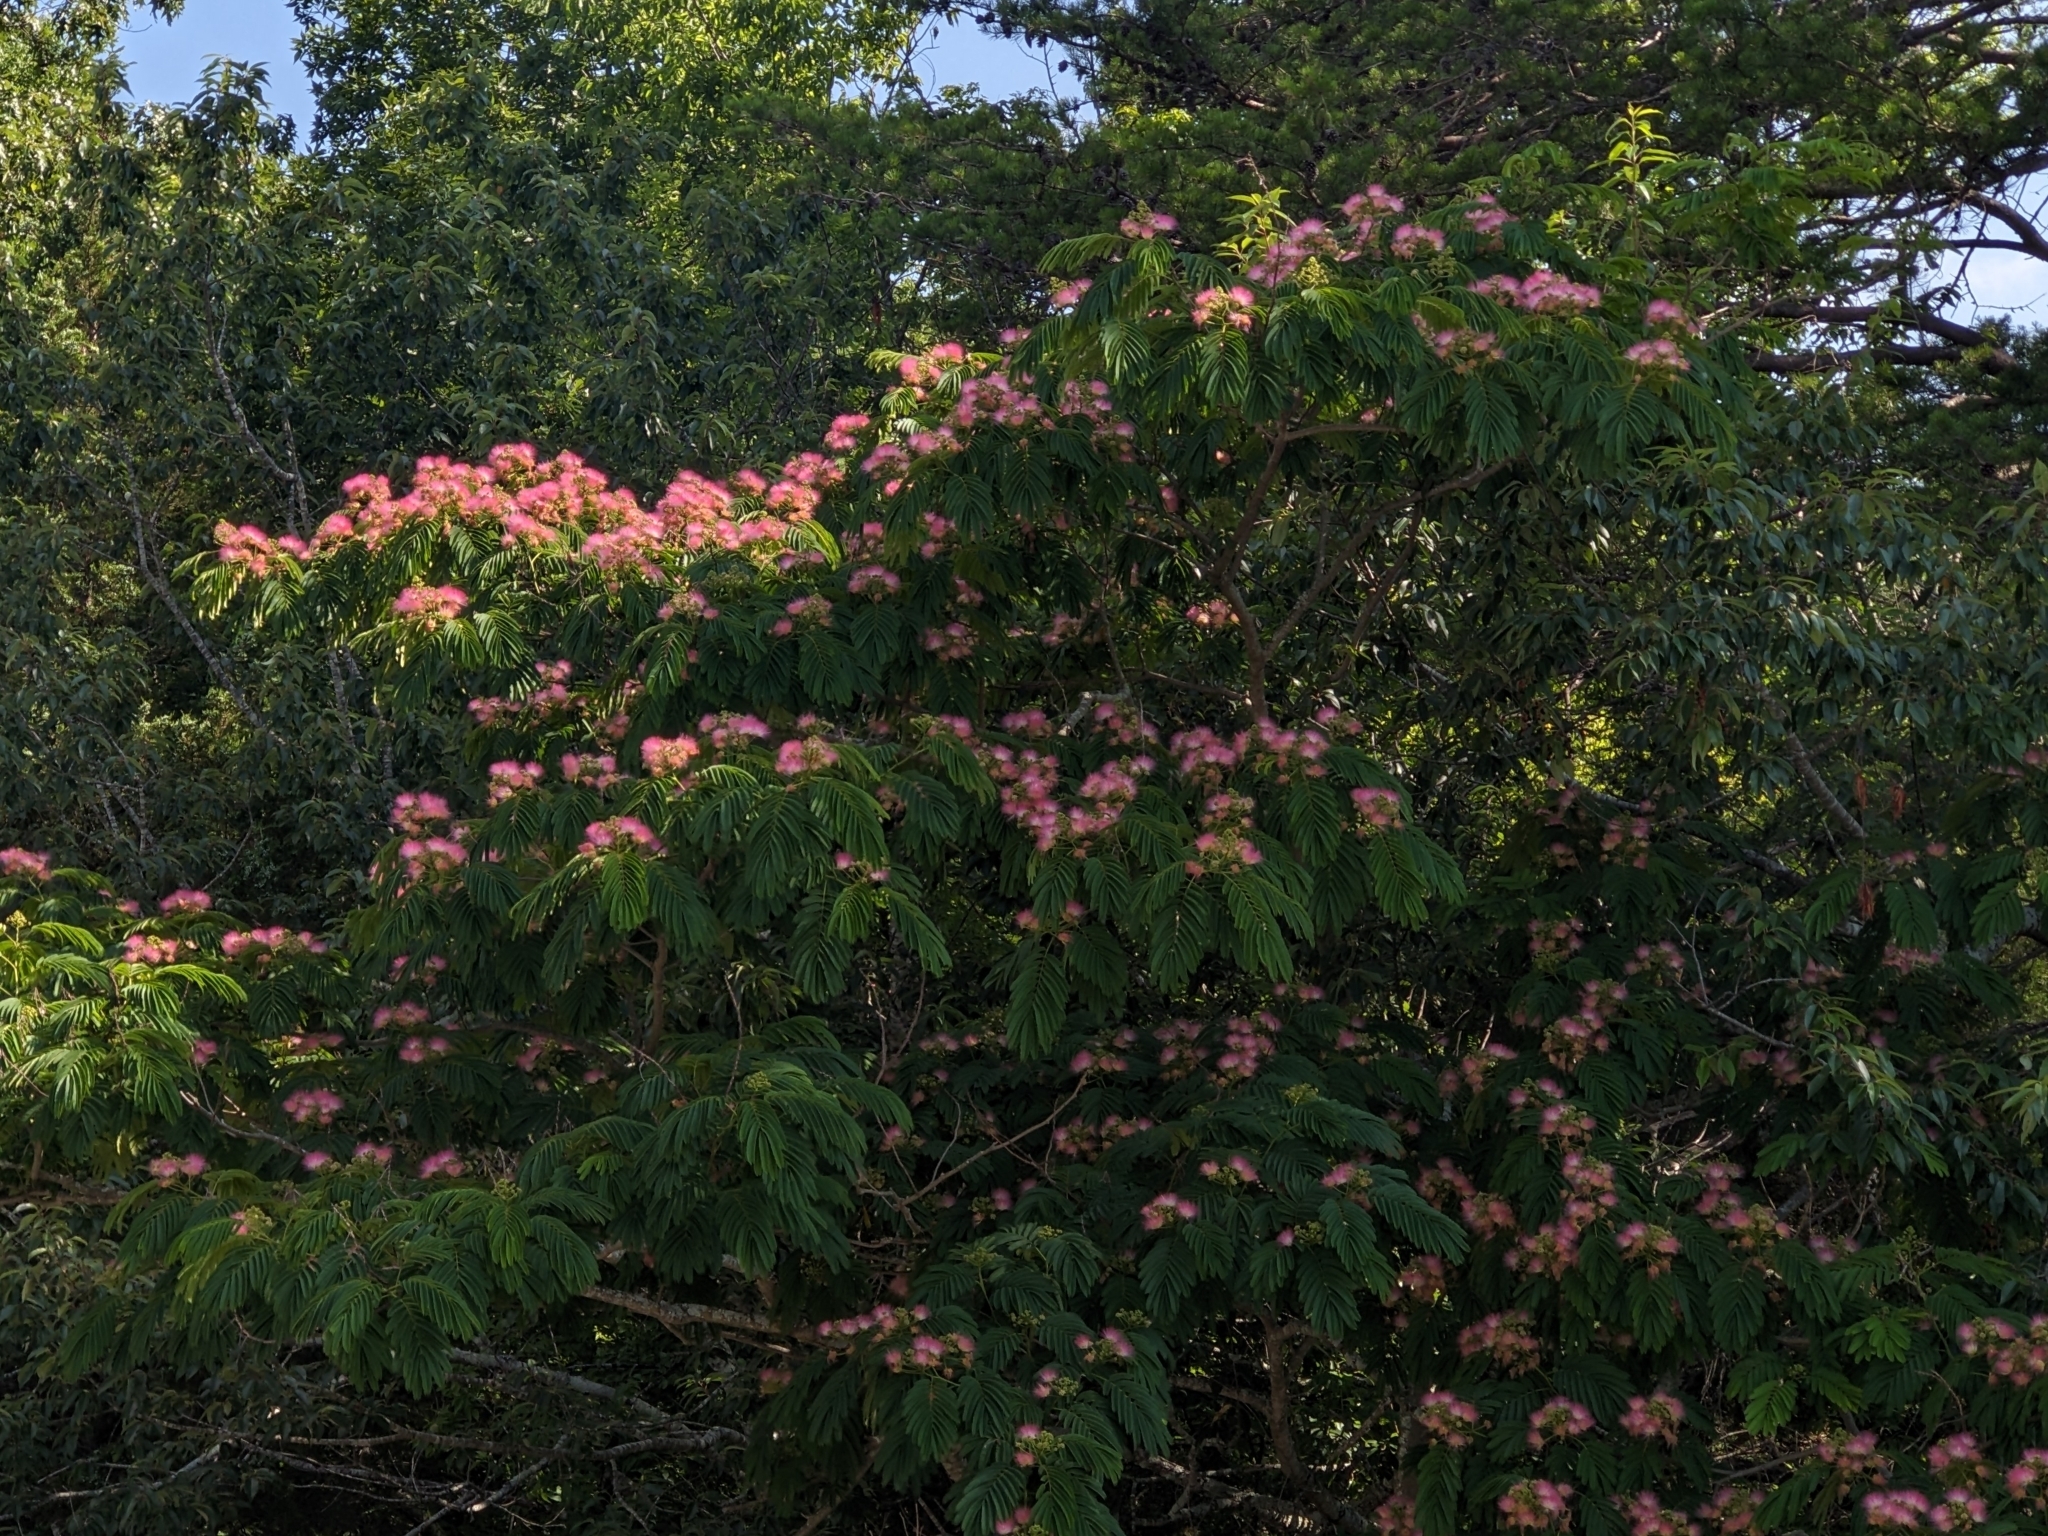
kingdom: Plantae
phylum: Tracheophyta
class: Magnoliopsida
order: Fabales
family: Fabaceae
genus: Albizia
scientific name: Albizia julibrissin
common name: Silktree
